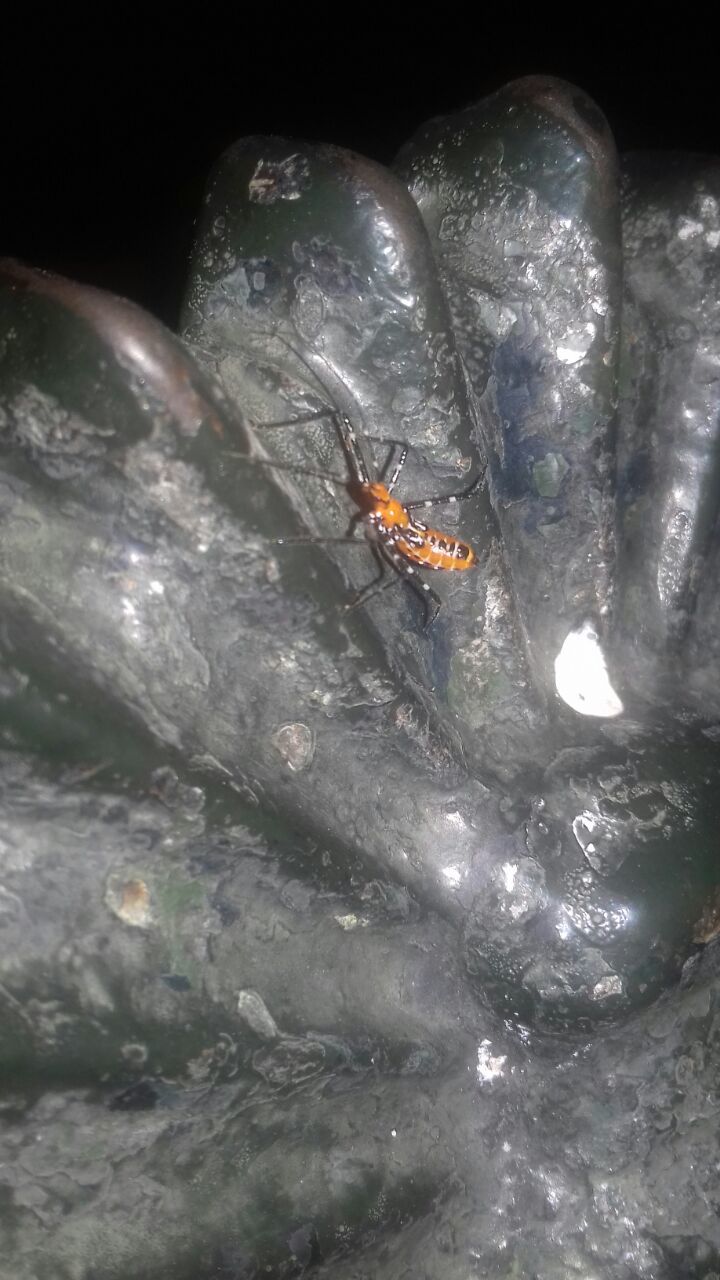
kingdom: Animalia
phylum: Arthropoda
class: Insecta
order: Hemiptera
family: Reduviidae
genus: Zelus
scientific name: Zelus longipes
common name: Milkweed assassin bug
